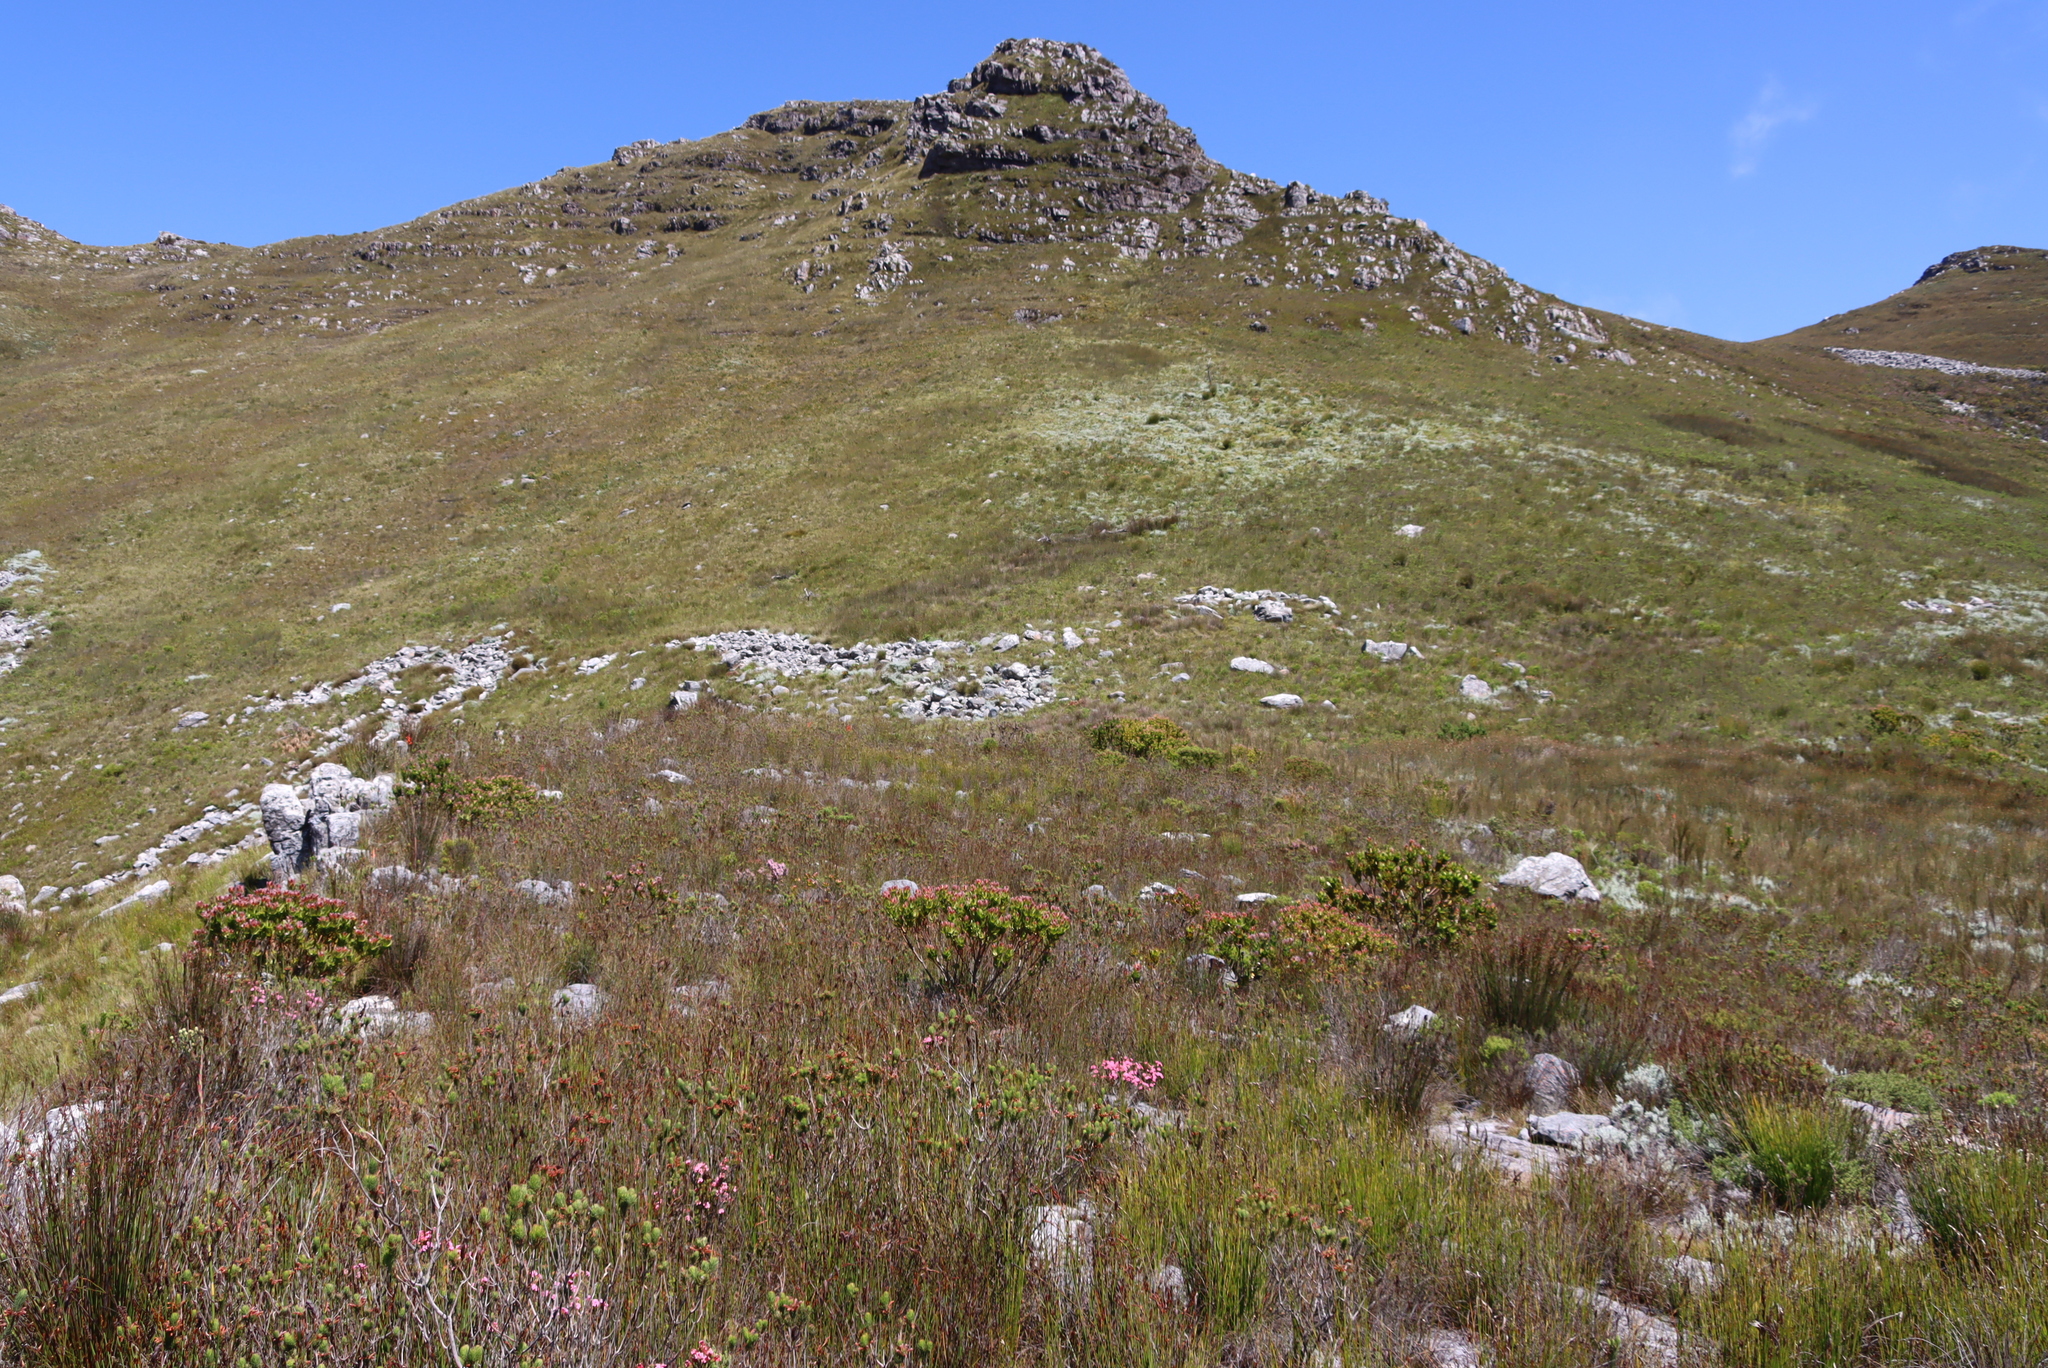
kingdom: Plantae
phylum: Tracheophyta
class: Magnoliopsida
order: Proteales
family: Proteaceae
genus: Leucadendron
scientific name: Leucadendron gandogeri
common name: Broad-leaf conebush
